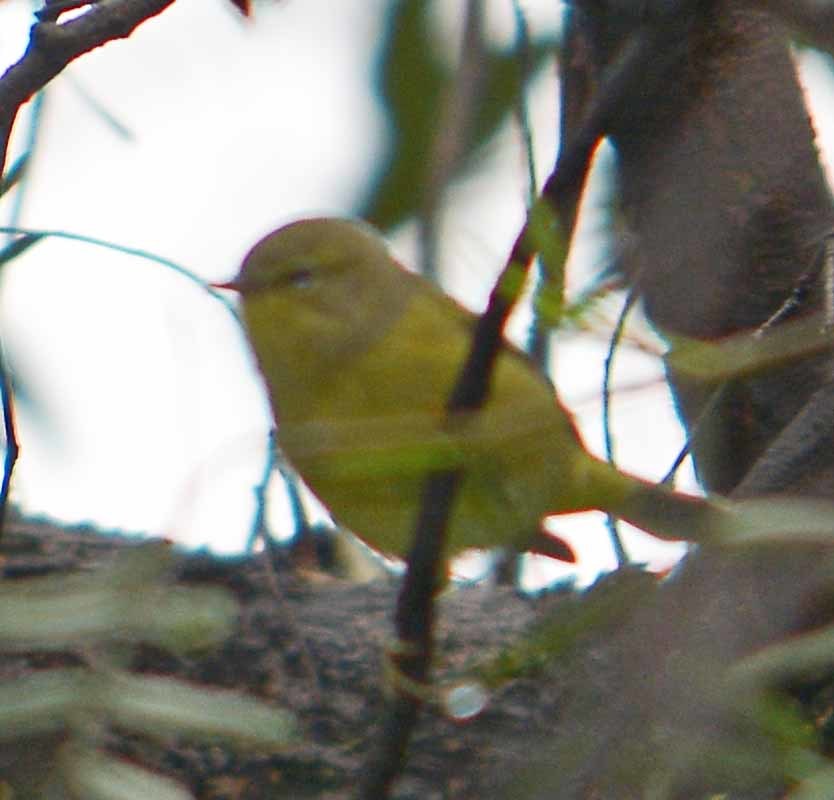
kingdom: Animalia
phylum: Chordata
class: Aves
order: Passeriformes
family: Parulidae
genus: Leiothlypis
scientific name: Leiothlypis celata
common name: Orange-crowned warbler
